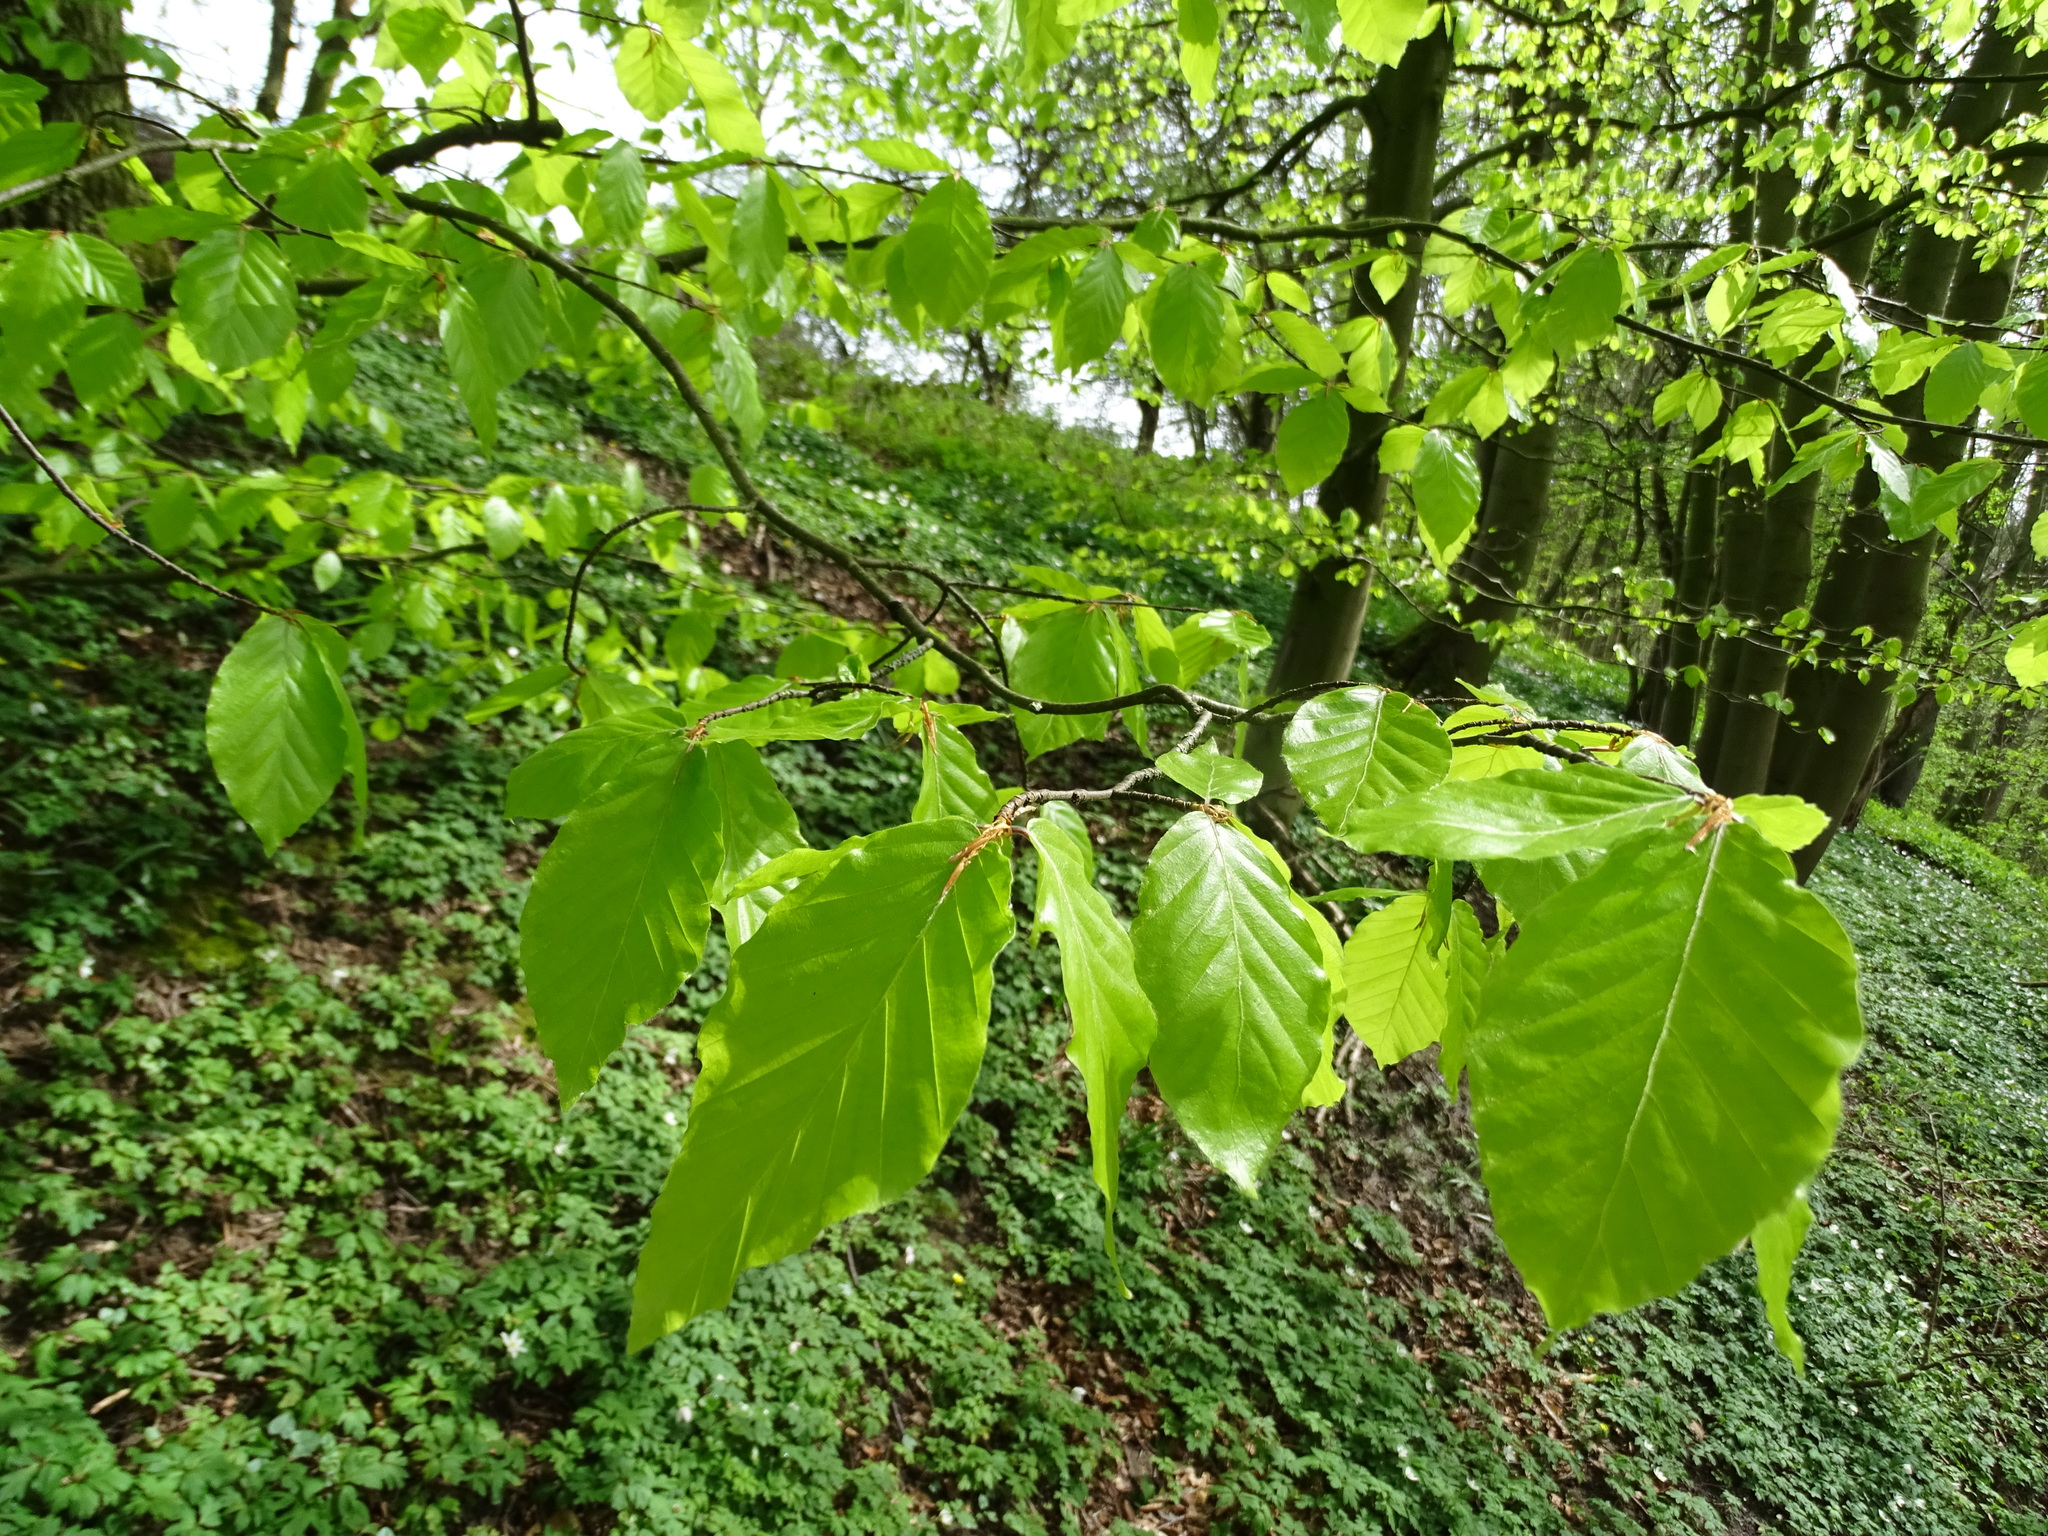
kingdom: Plantae
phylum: Tracheophyta
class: Magnoliopsida
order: Fagales
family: Fagaceae
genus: Fagus
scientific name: Fagus sylvatica
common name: Beech
